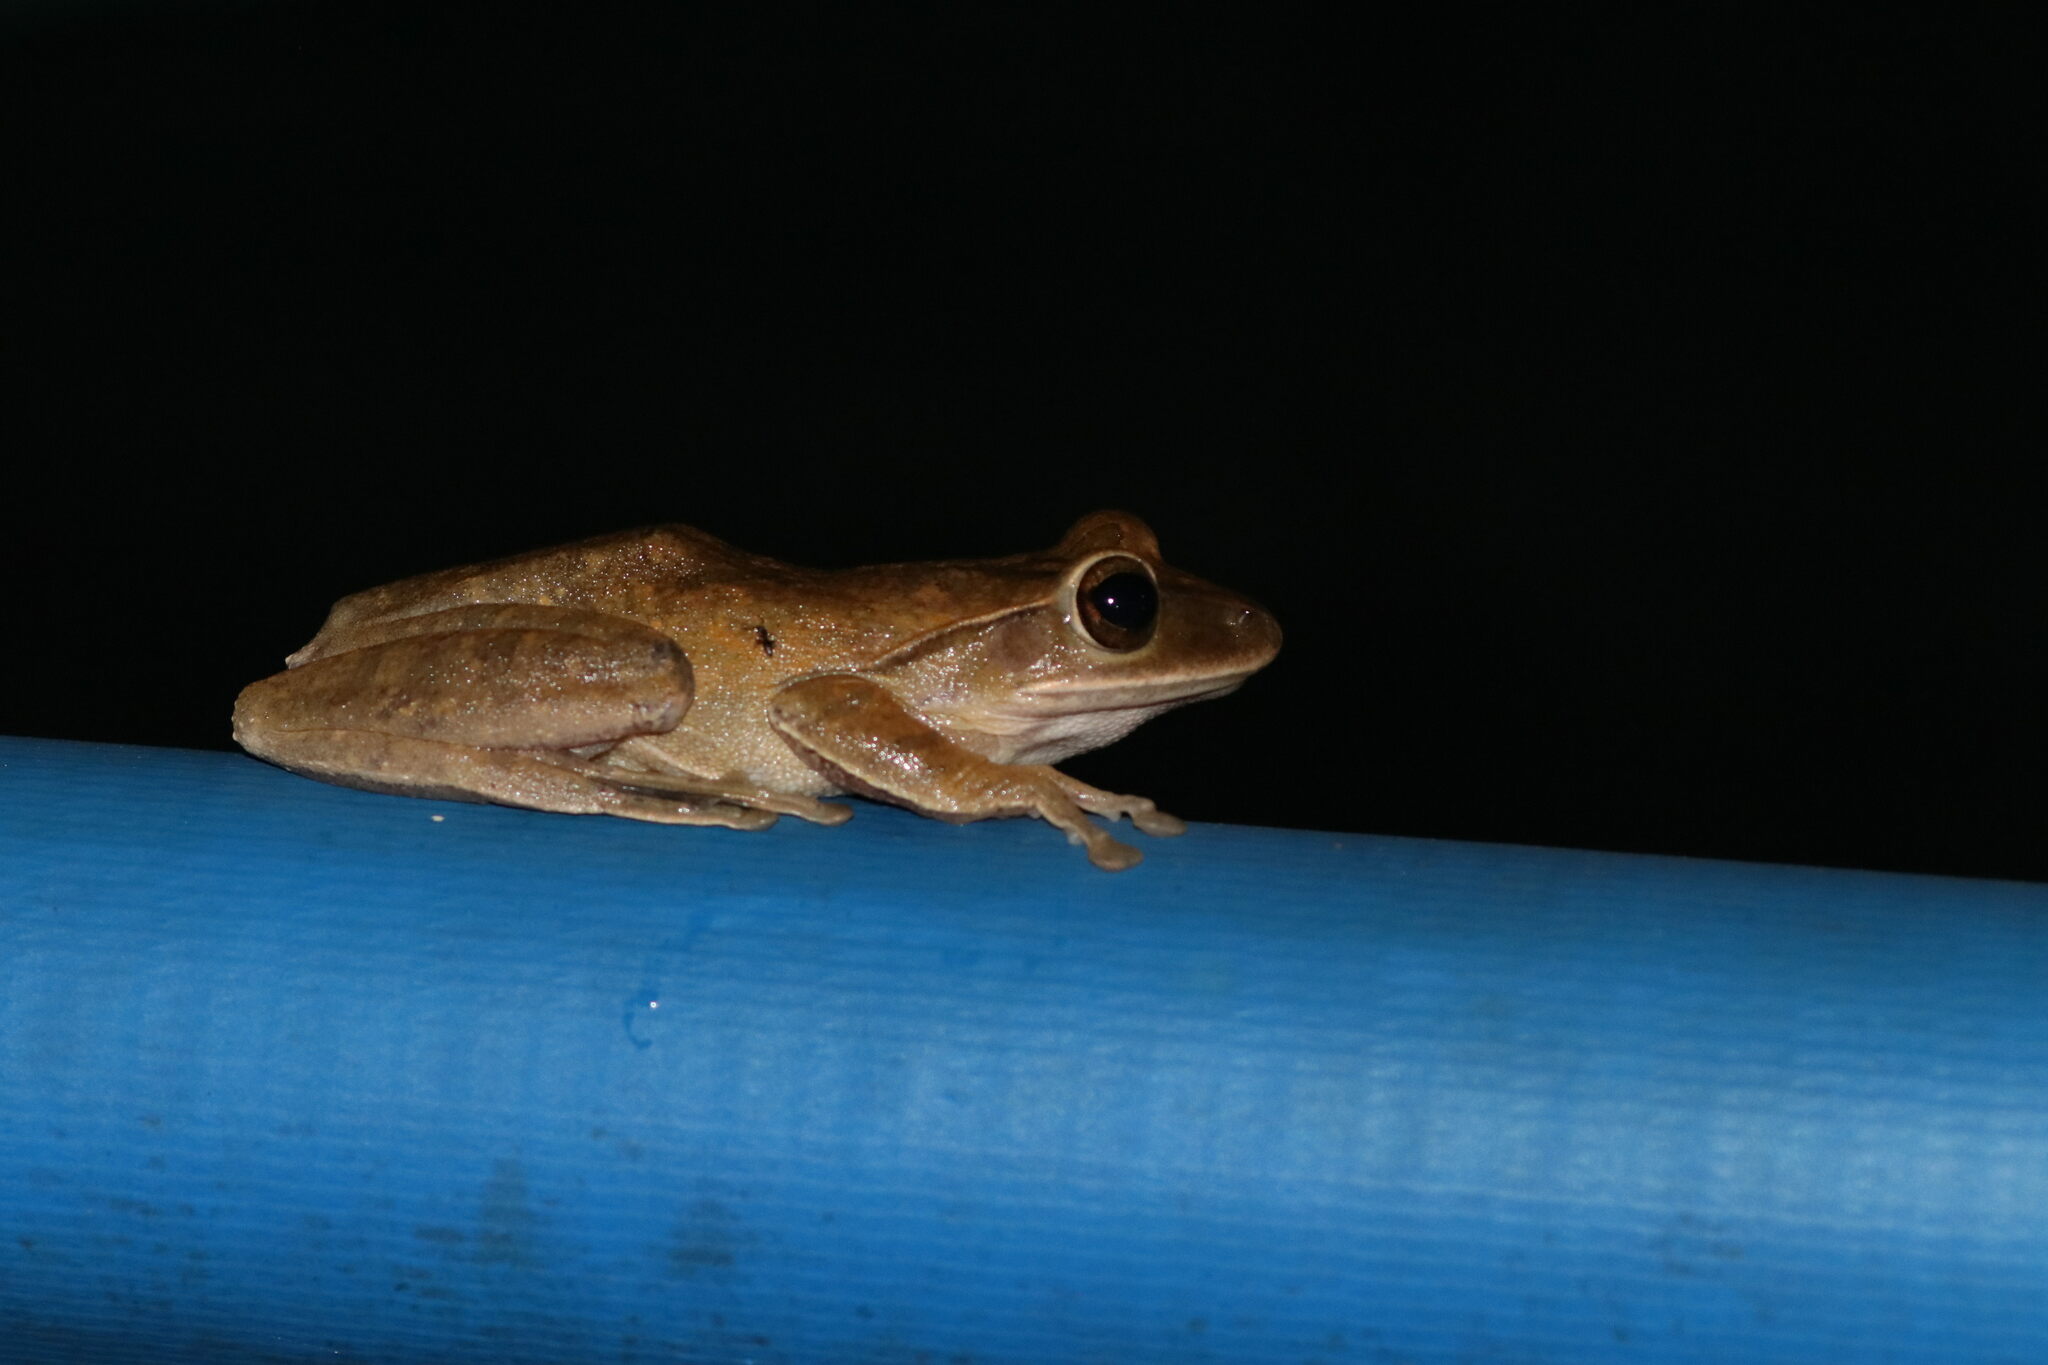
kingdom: Animalia
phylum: Chordata
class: Amphibia
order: Anura
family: Rhacophoridae
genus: Polypedates
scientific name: Polypedates megacephalus
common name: Hong kong whipping frog
